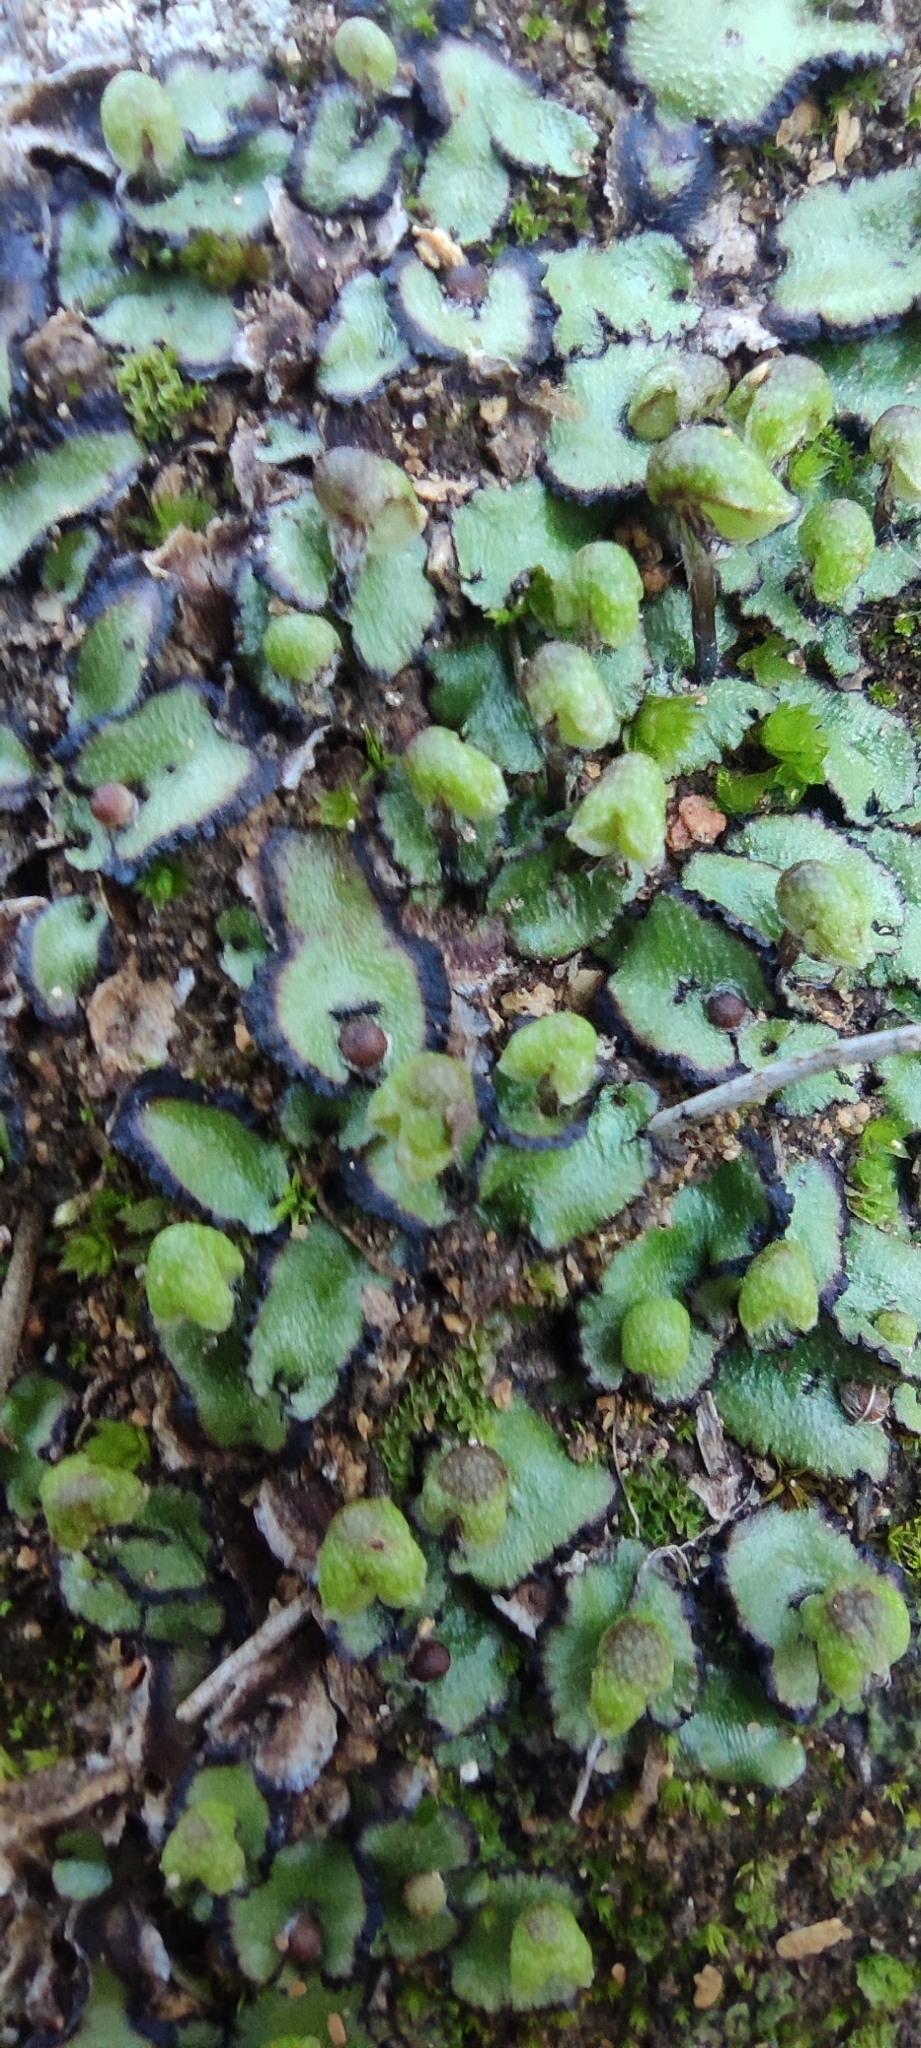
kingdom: Plantae
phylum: Marchantiophyta
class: Marchantiopsida
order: Marchantiales
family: Aytoniaceae
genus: Reboulia
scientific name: Reboulia hemisphaerica
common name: Purple-margined liverwort
